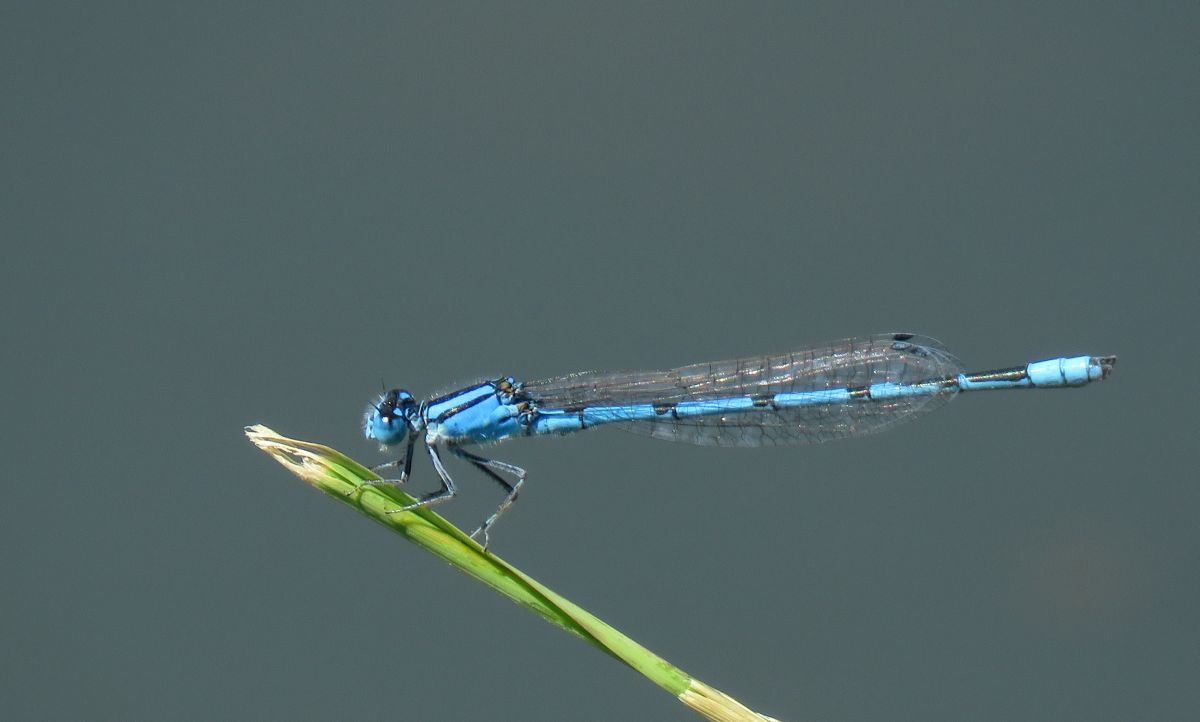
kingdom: Animalia
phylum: Arthropoda
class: Insecta
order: Odonata
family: Coenagrionidae
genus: Enallagma
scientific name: Enallagma civile
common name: Damselfly
